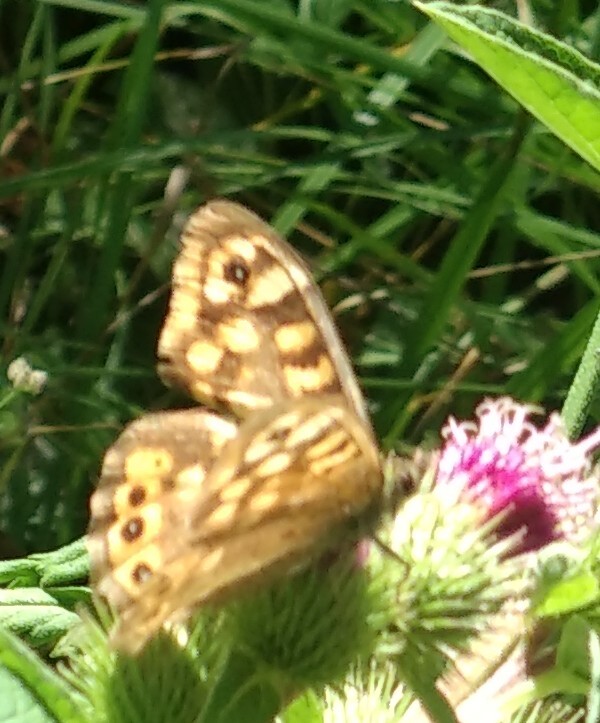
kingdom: Animalia
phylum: Arthropoda
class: Insecta
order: Lepidoptera
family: Nymphalidae
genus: Pararge
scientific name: Pararge aegeria
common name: Speckled wood
